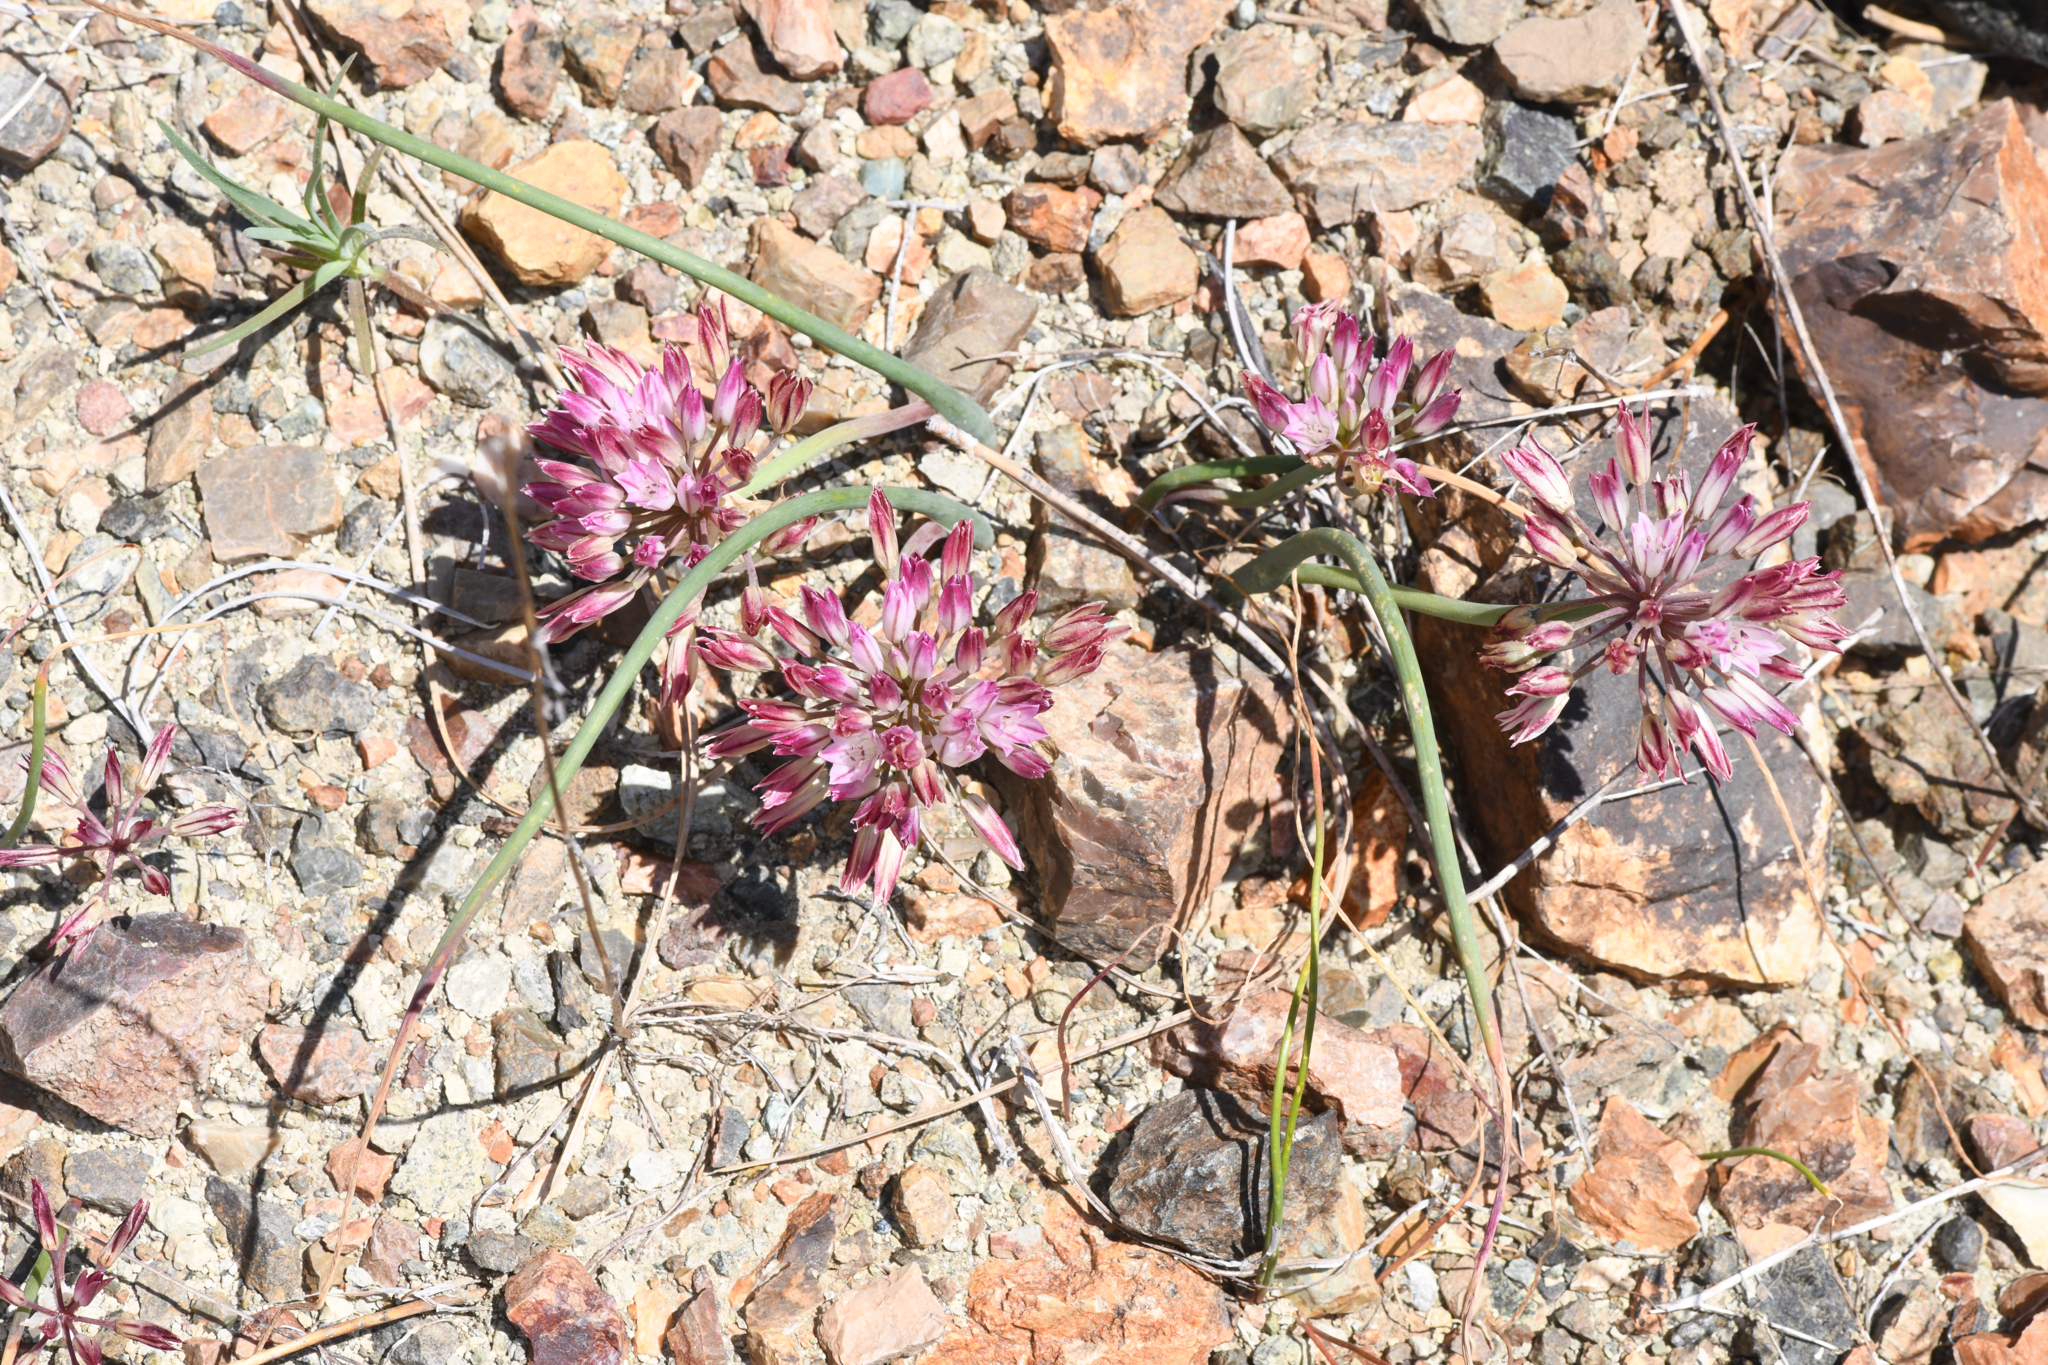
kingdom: Plantae
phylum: Tracheophyta
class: Liliopsida
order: Asparagales
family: Amaryllidaceae
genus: Allium
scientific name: Allium diabolense
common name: Serpentine onion
